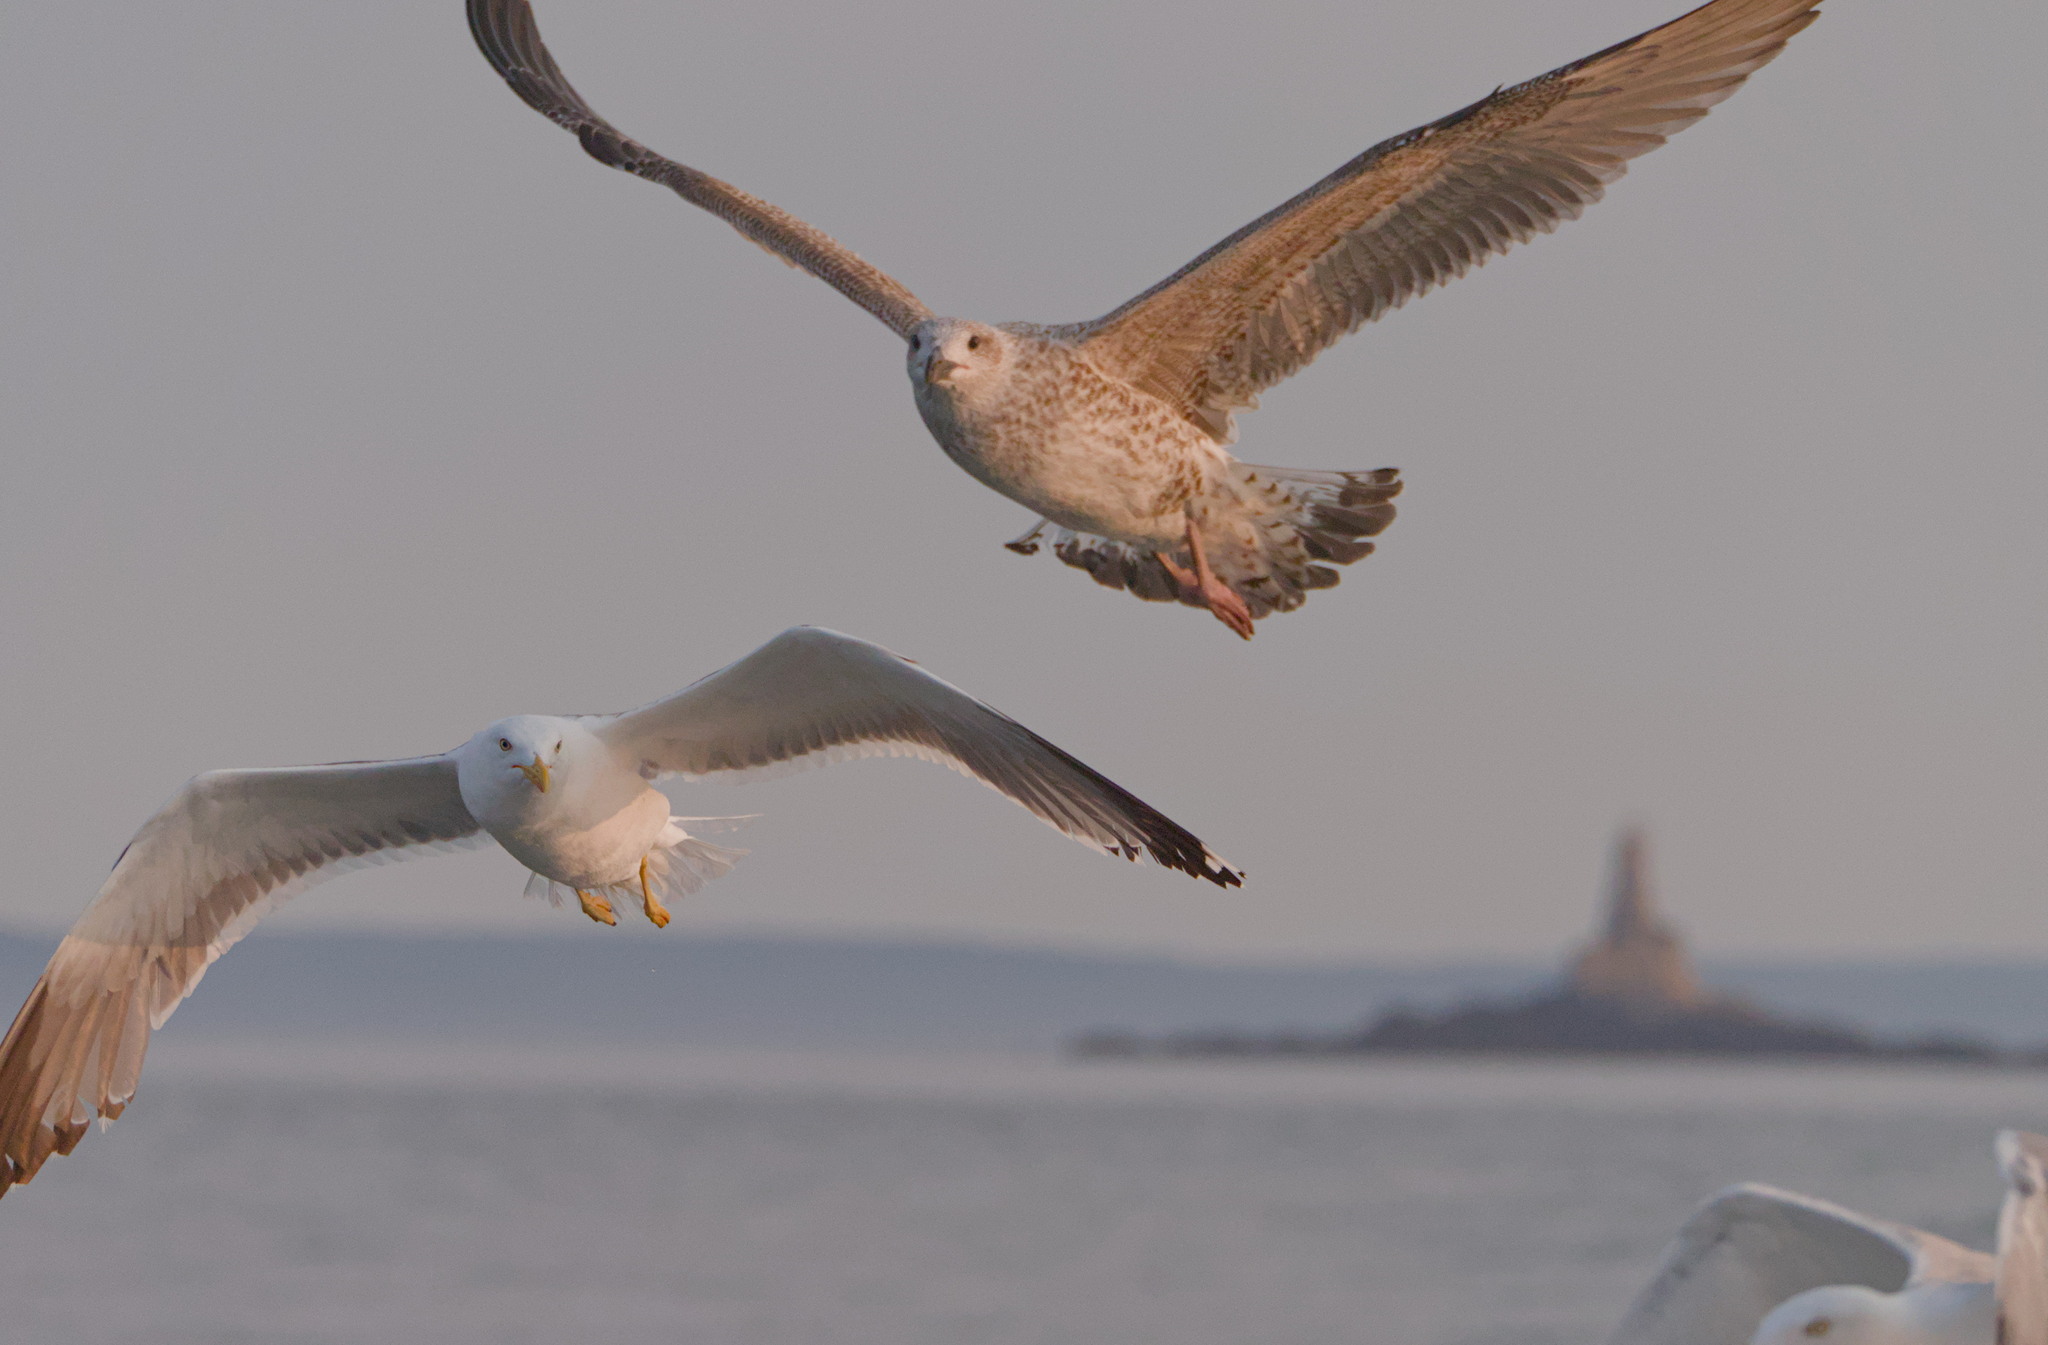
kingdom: Animalia
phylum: Chordata
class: Aves
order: Charadriiformes
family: Laridae
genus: Larus
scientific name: Larus argentatus
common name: Herring gull
